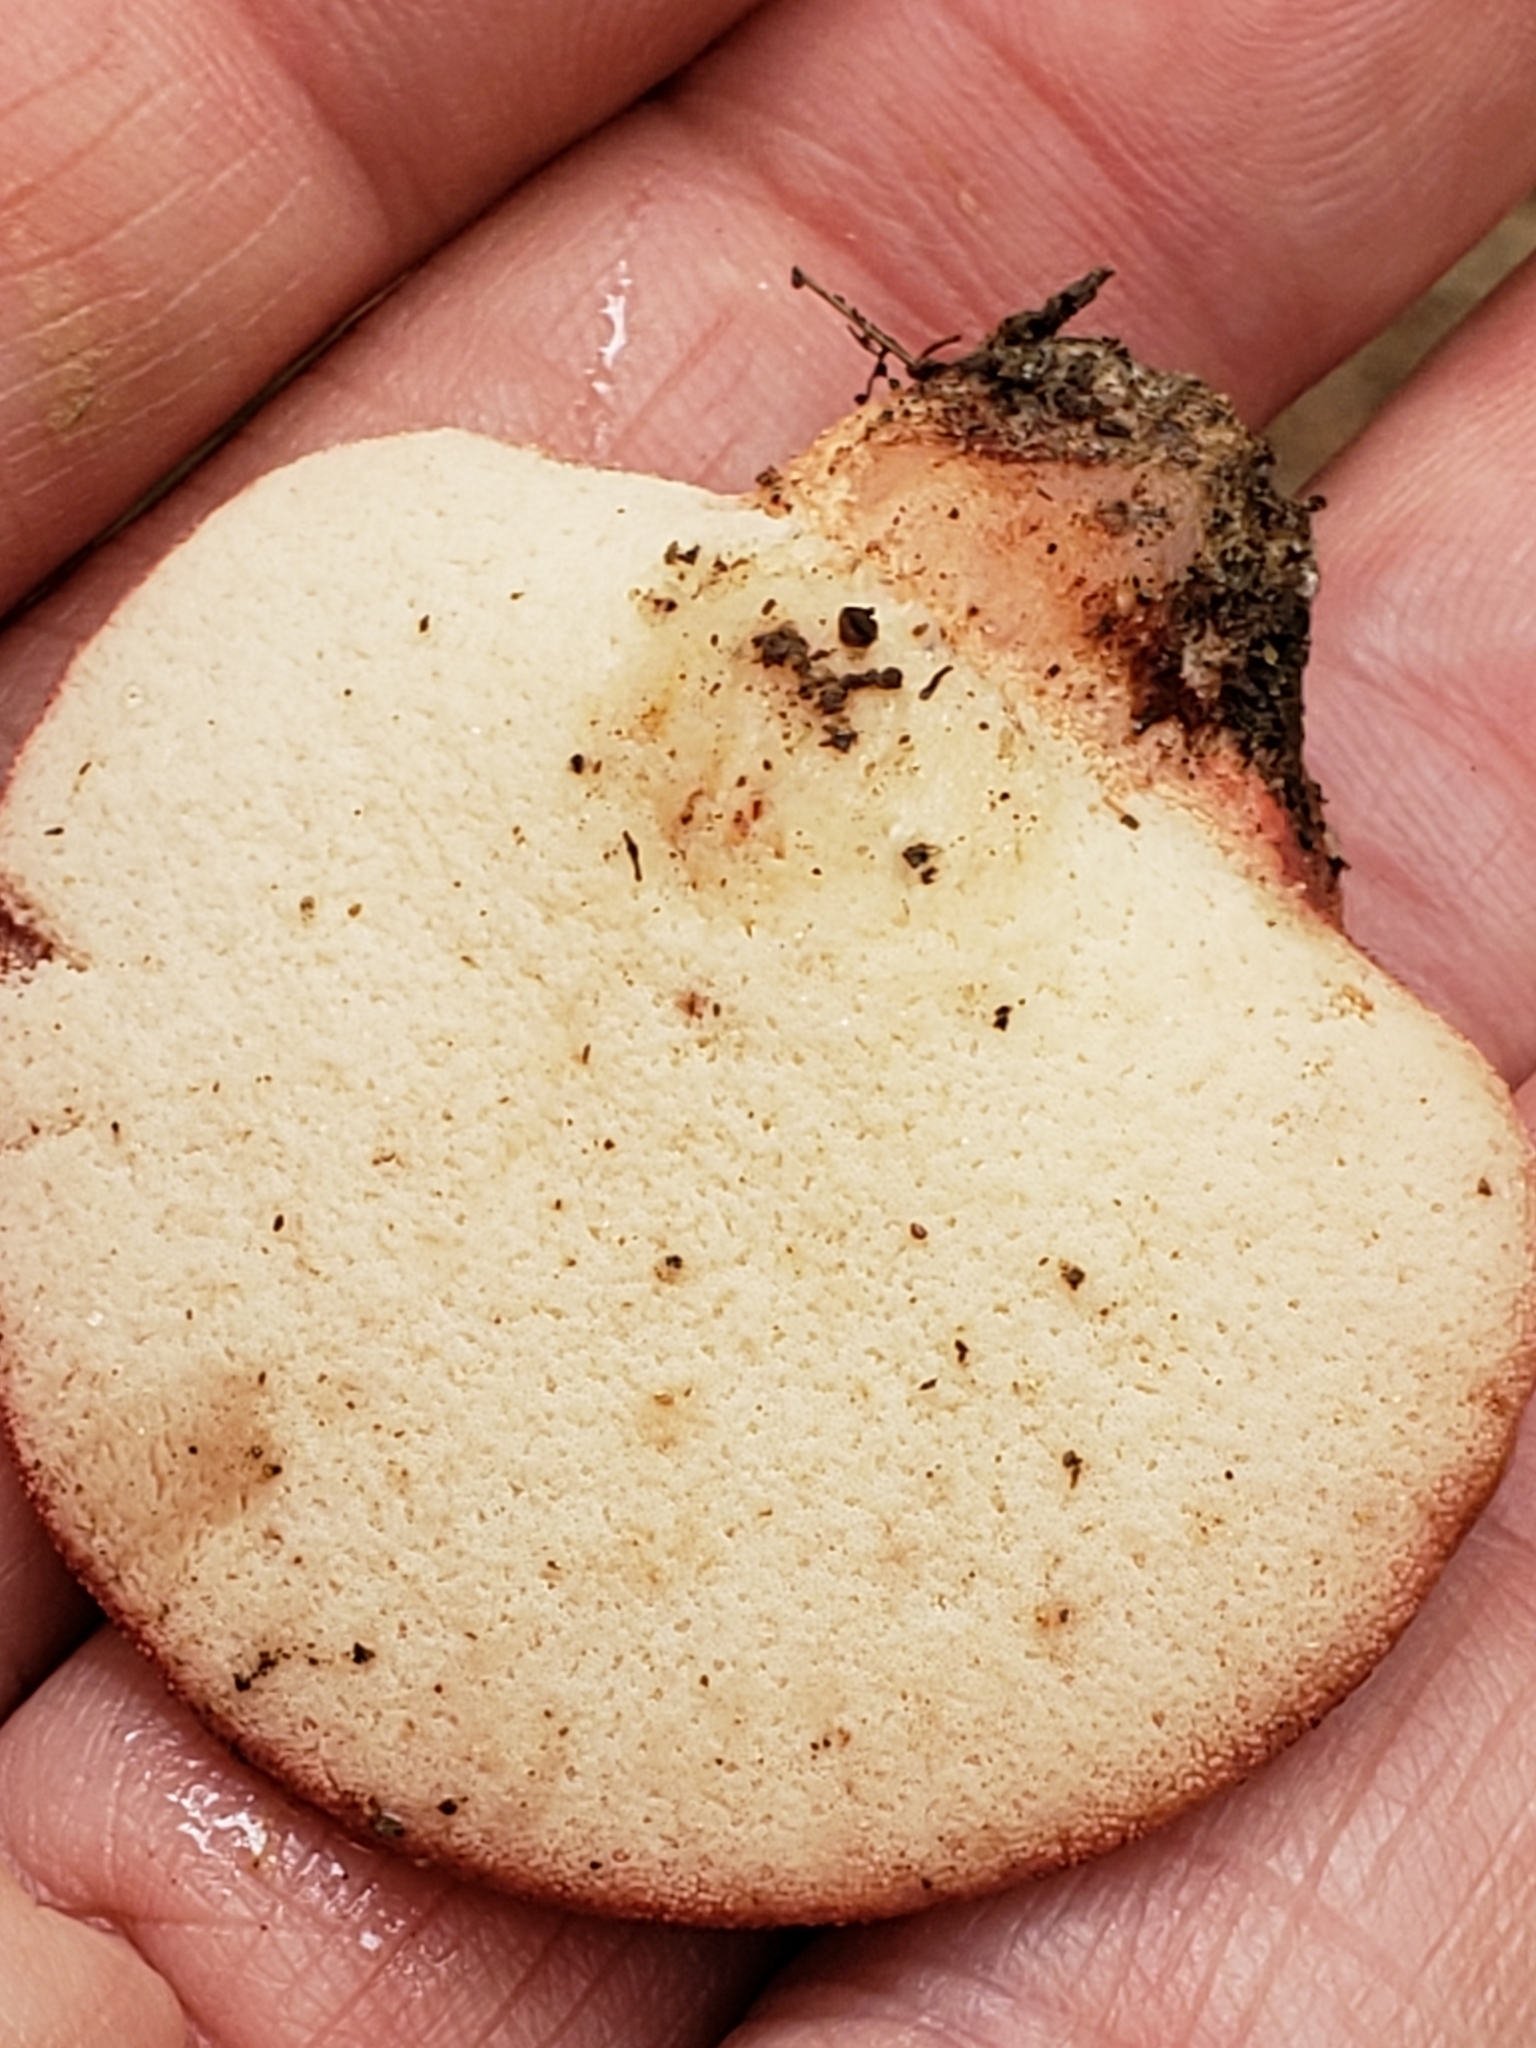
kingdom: Fungi
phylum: Basidiomycota
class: Agaricomycetes
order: Agaricales
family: Fistulinaceae
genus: Fistulina
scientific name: Fistulina hepatica
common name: Beef-steak fungus
